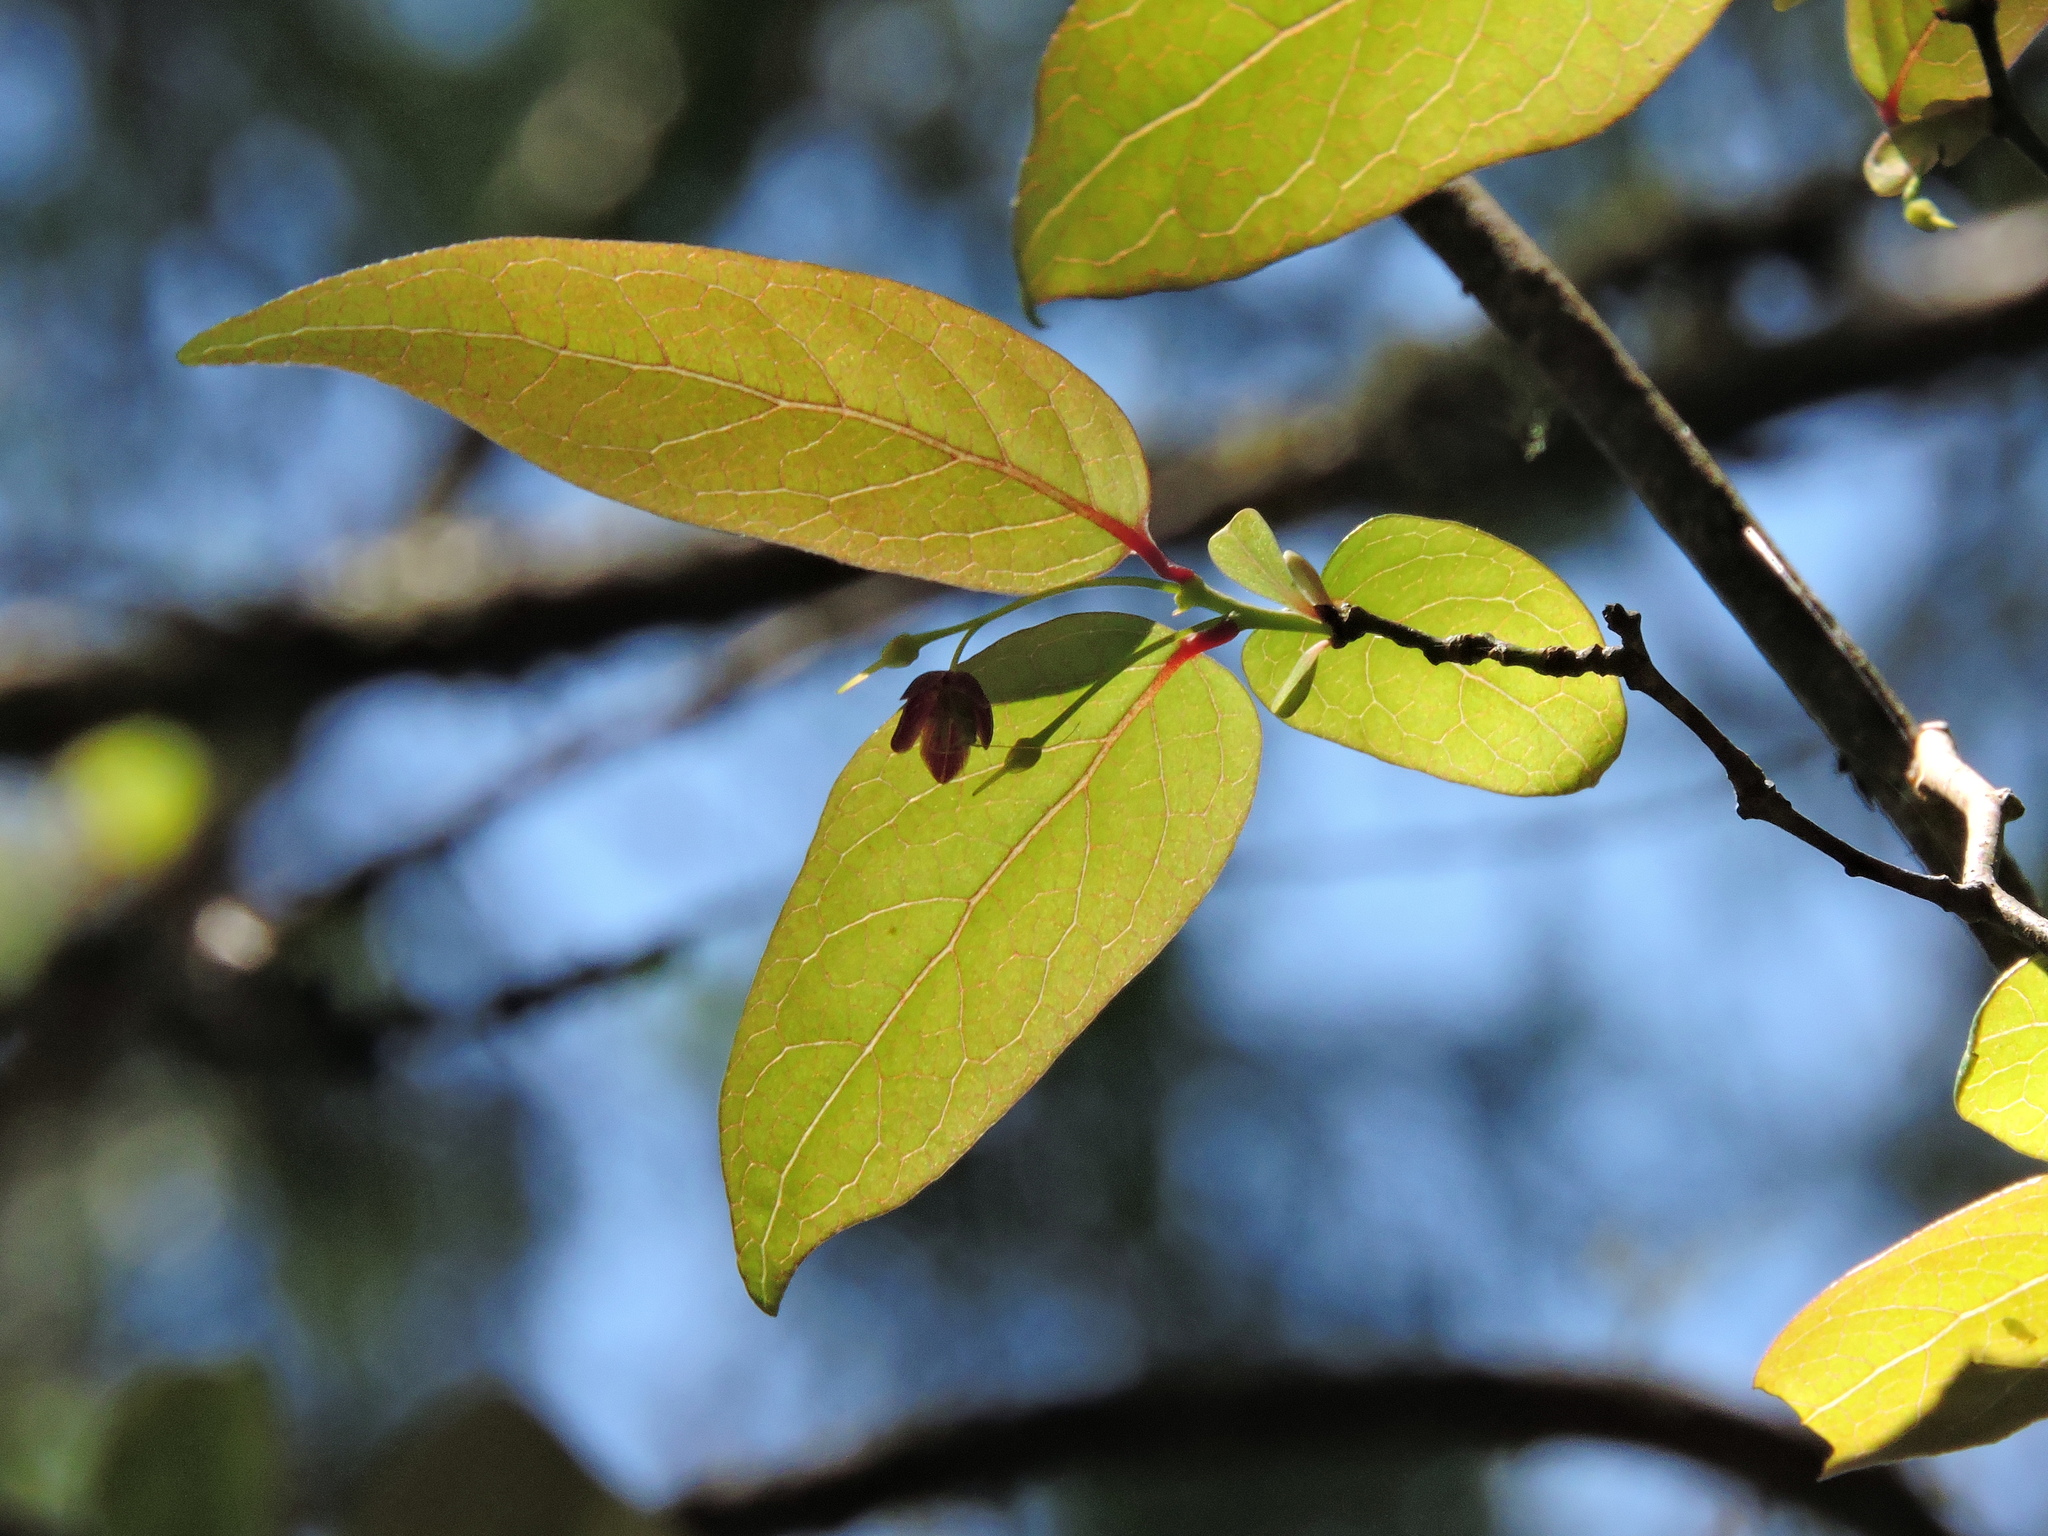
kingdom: Plantae
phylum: Tracheophyta
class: Magnoliopsida
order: Proteales
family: Sabiaceae
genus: Sabia
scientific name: Sabia transarisanensis
